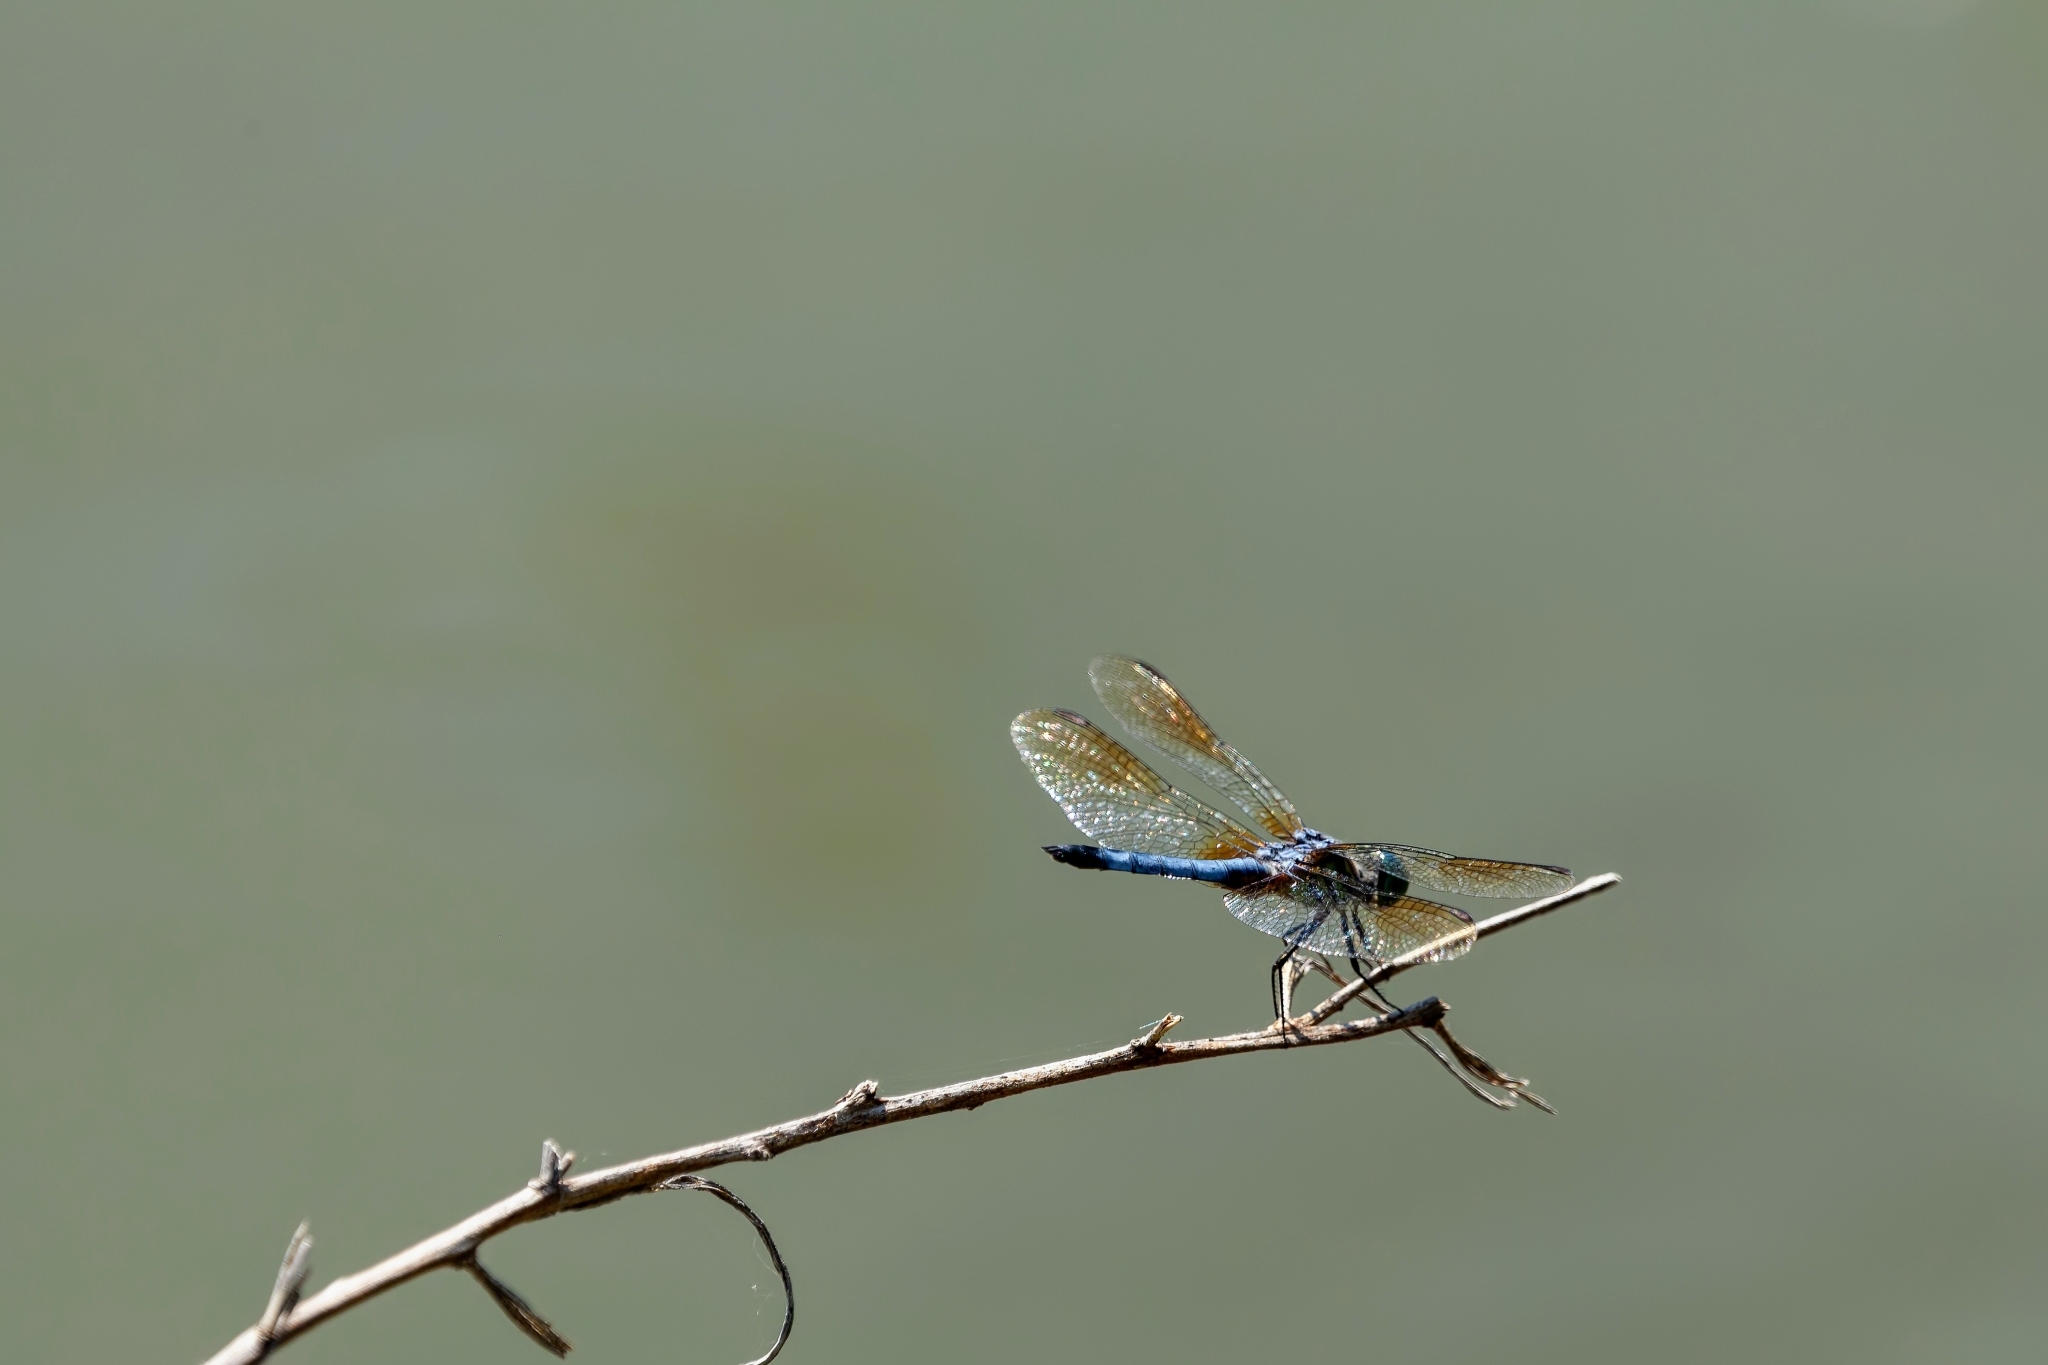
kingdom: Animalia
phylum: Arthropoda
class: Insecta
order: Odonata
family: Libellulidae
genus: Pachydiplax
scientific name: Pachydiplax longipennis
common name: Blue dasher
